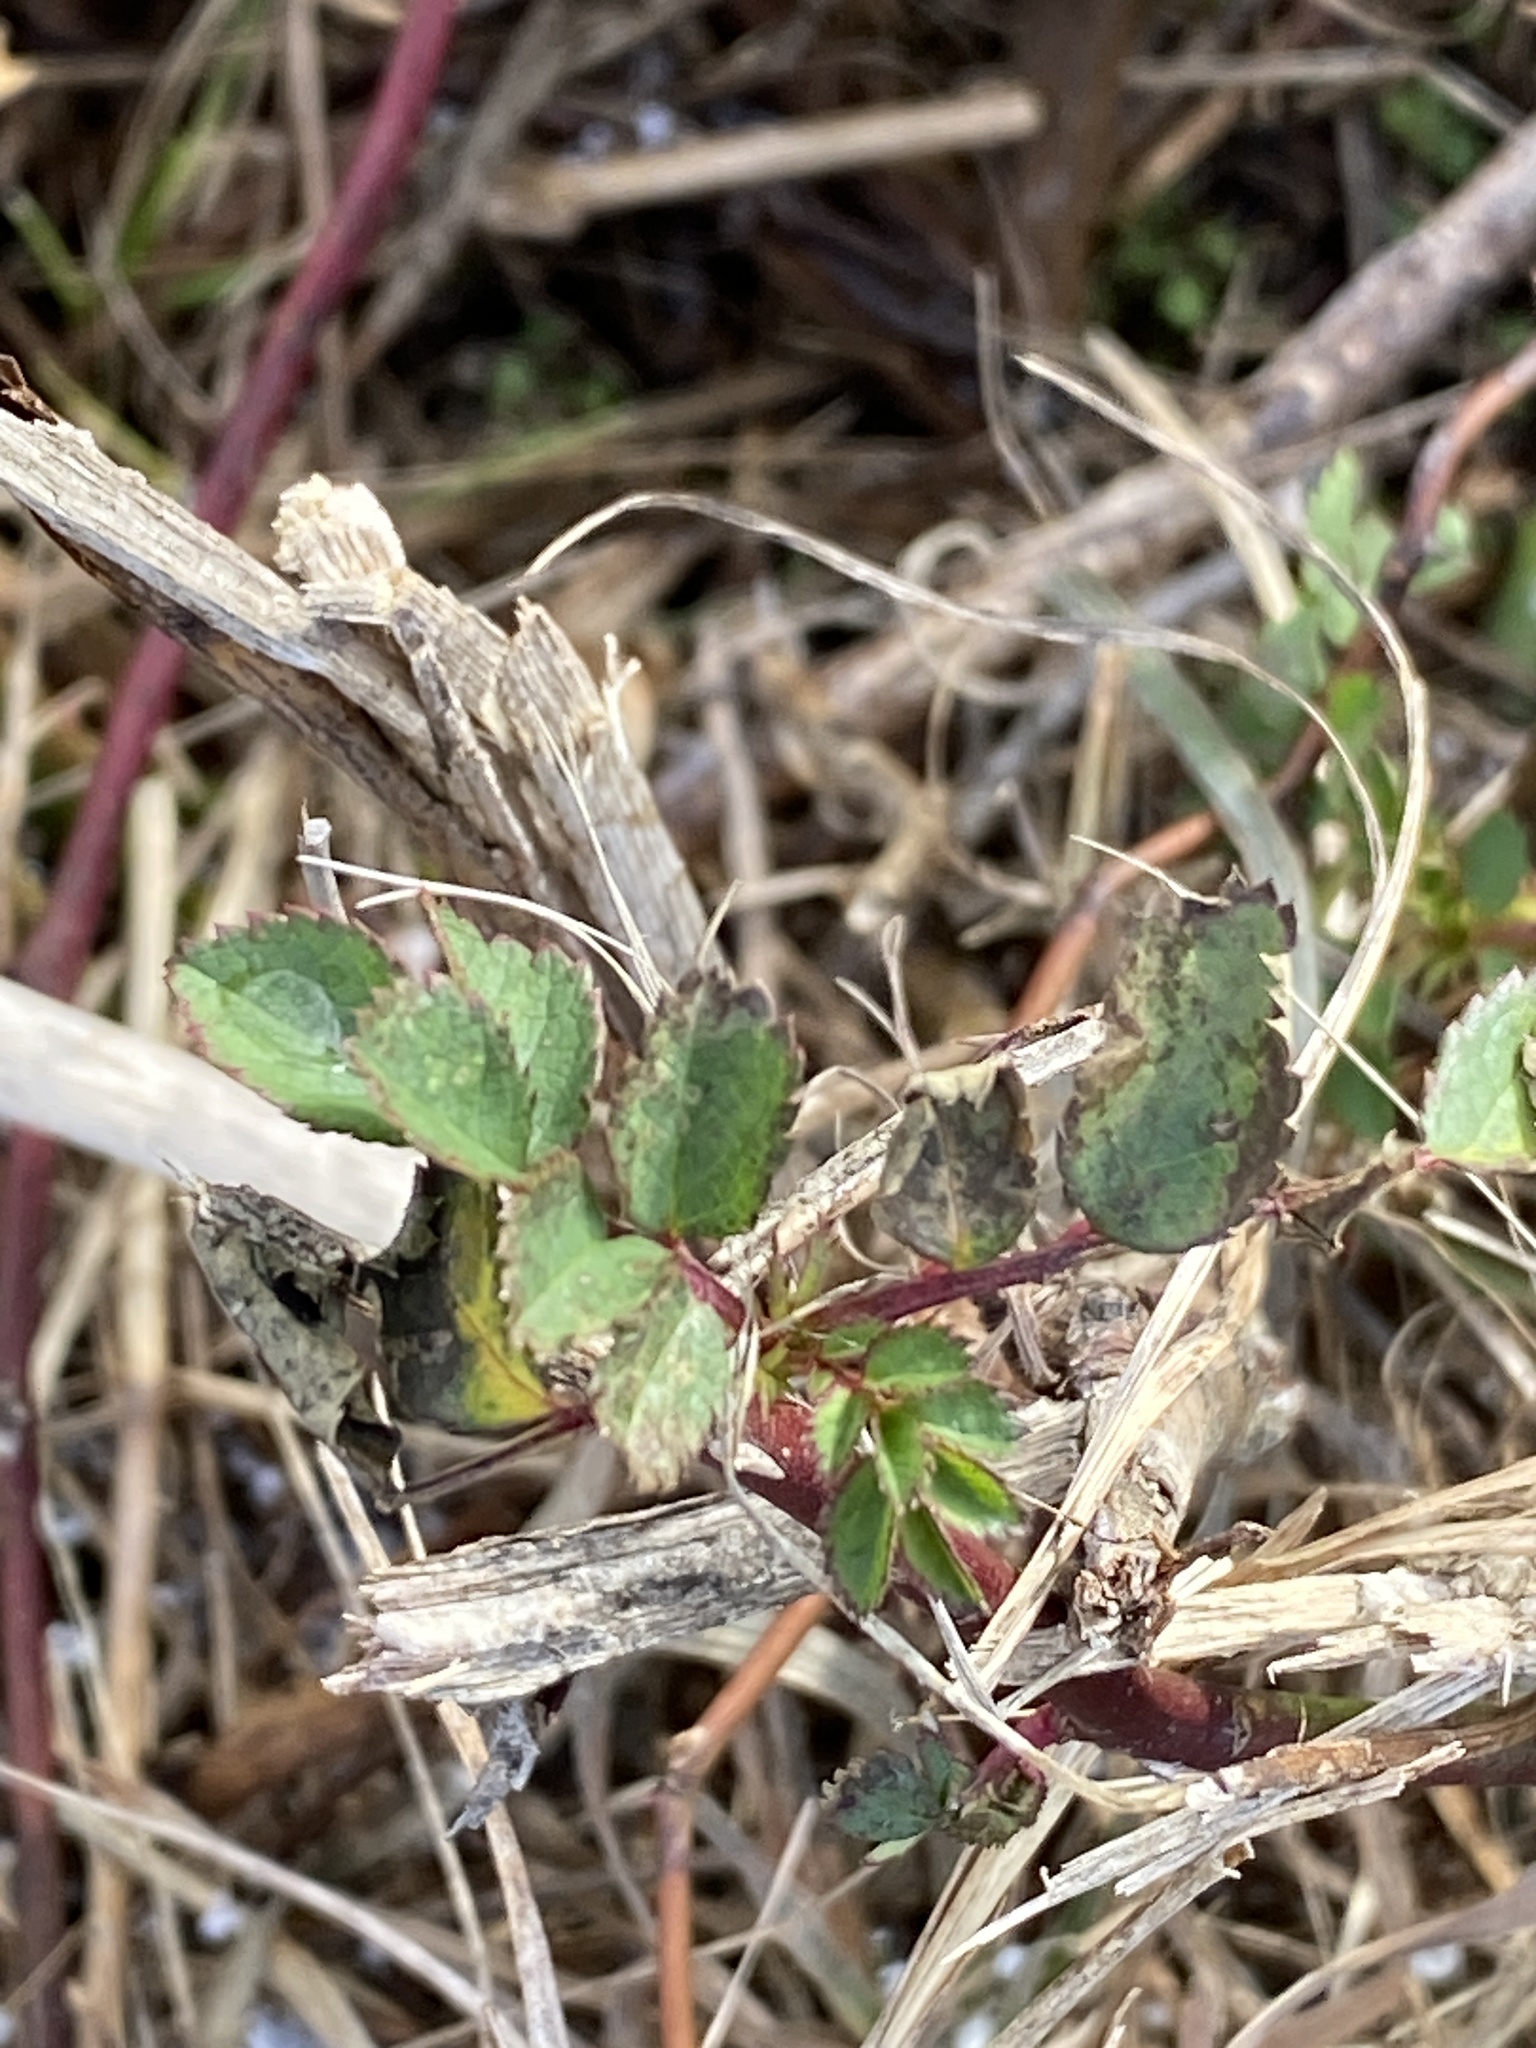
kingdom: Plantae
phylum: Tracheophyta
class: Magnoliopsida
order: Rosales
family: Rosaceae
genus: Rosa
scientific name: Rosa multiflora
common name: Multiflora rose
